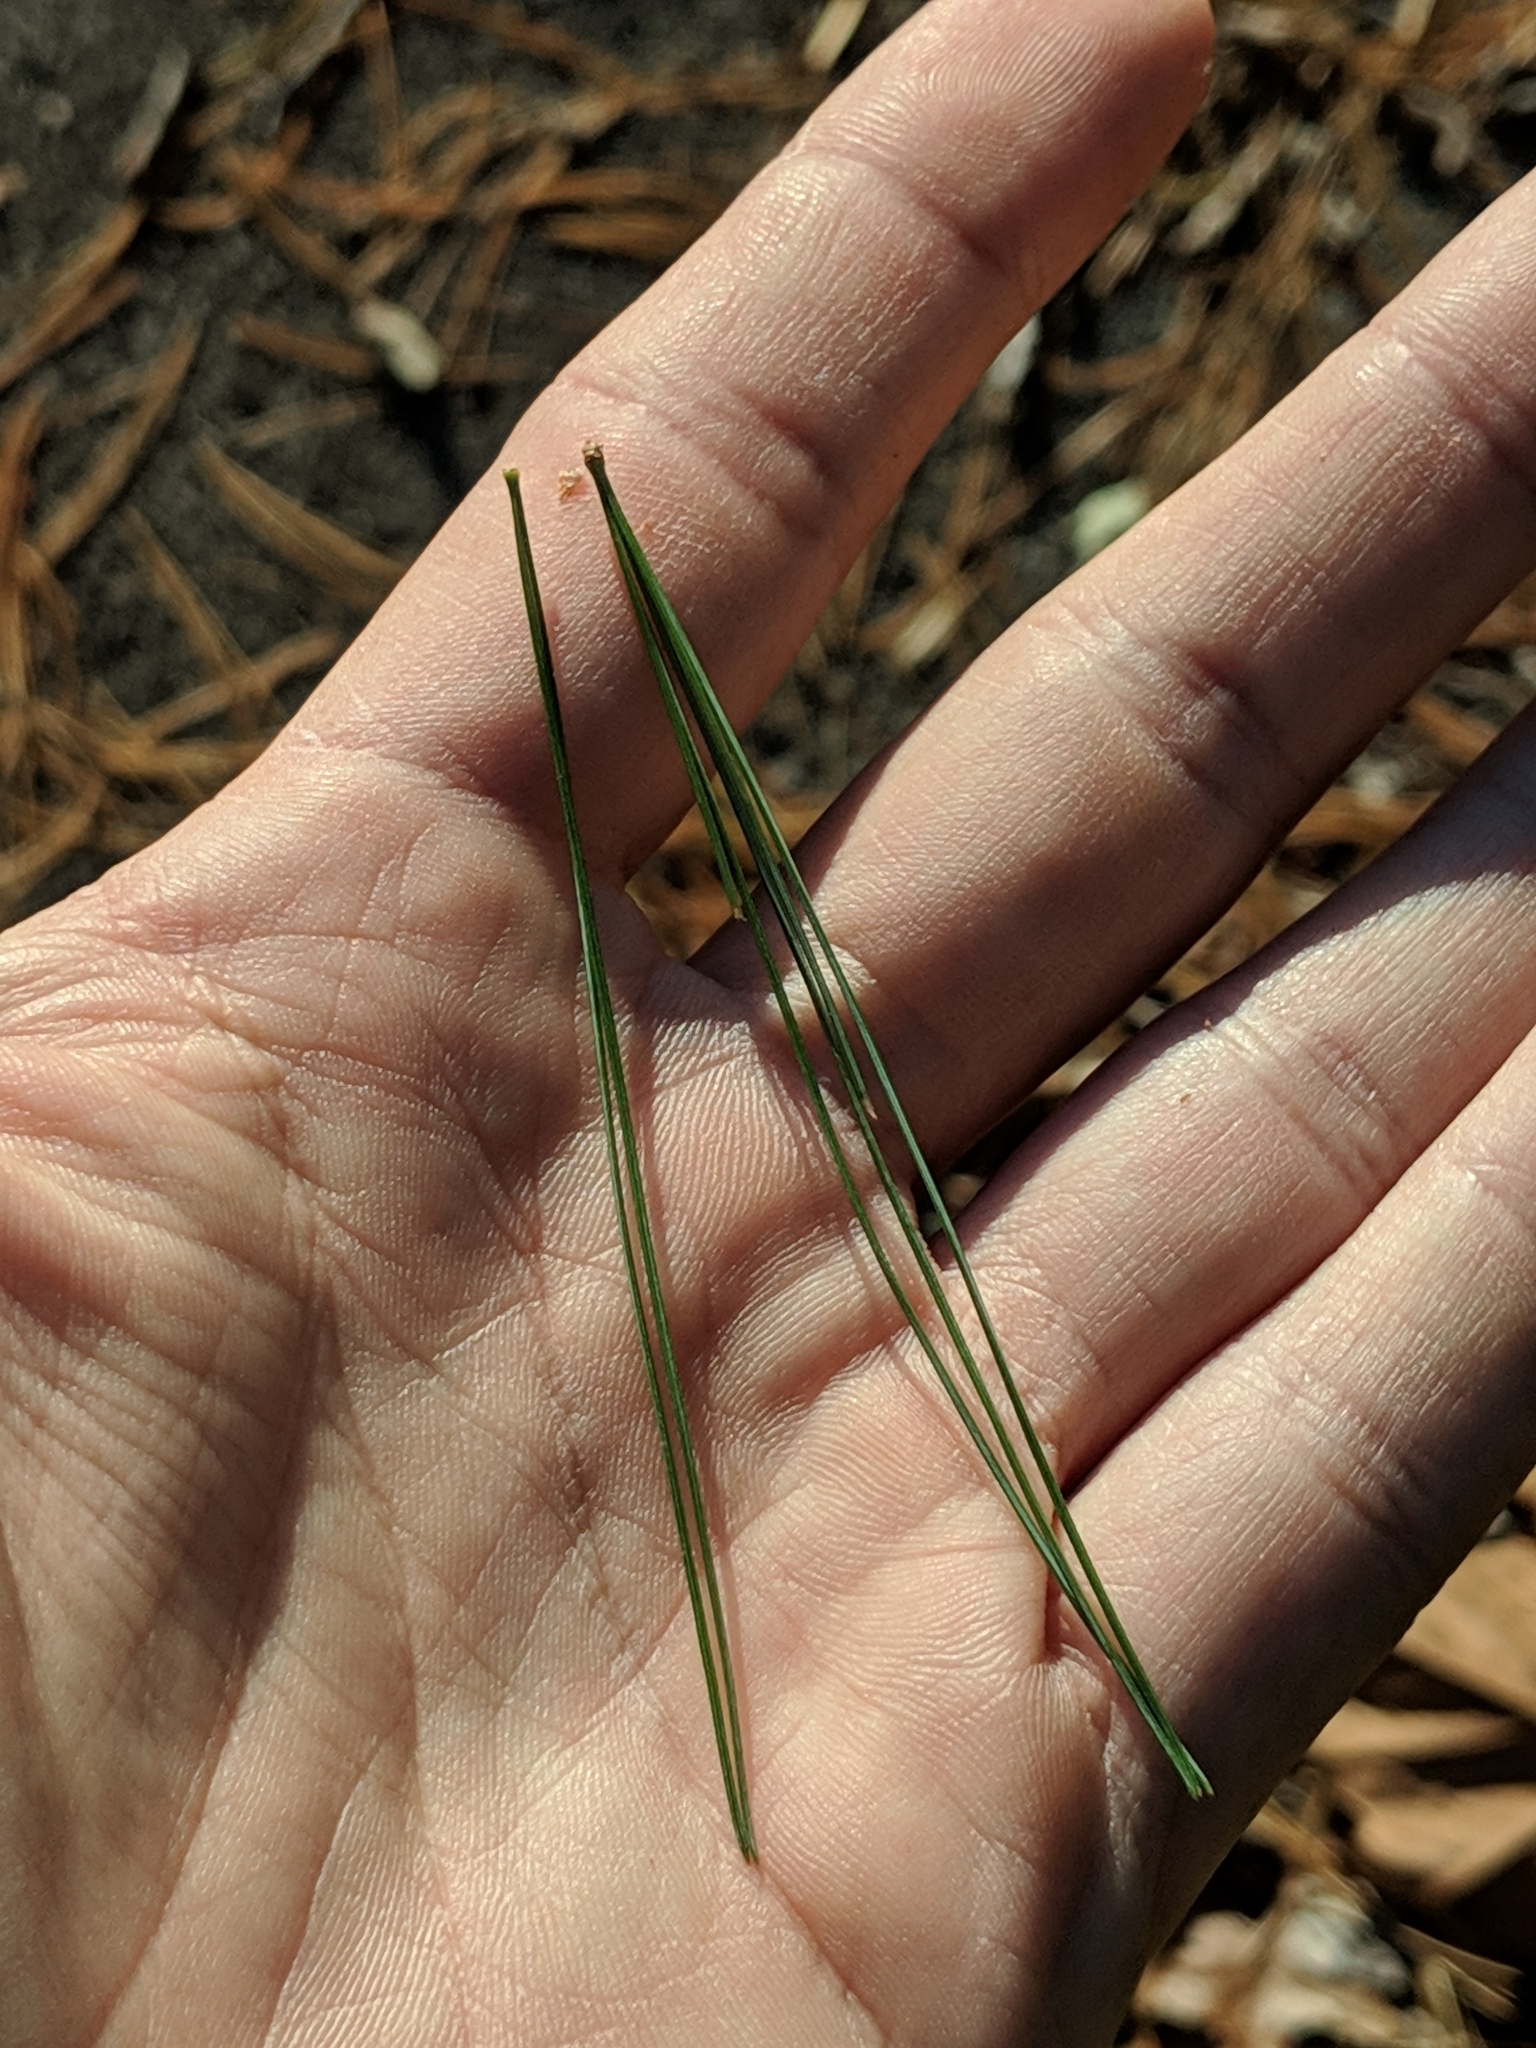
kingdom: Plantae
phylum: Tracheophyta
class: Pinopsida
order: Pinales
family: Pinaceae
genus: Pinus
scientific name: Pinus strobus
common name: Weymouth pine
